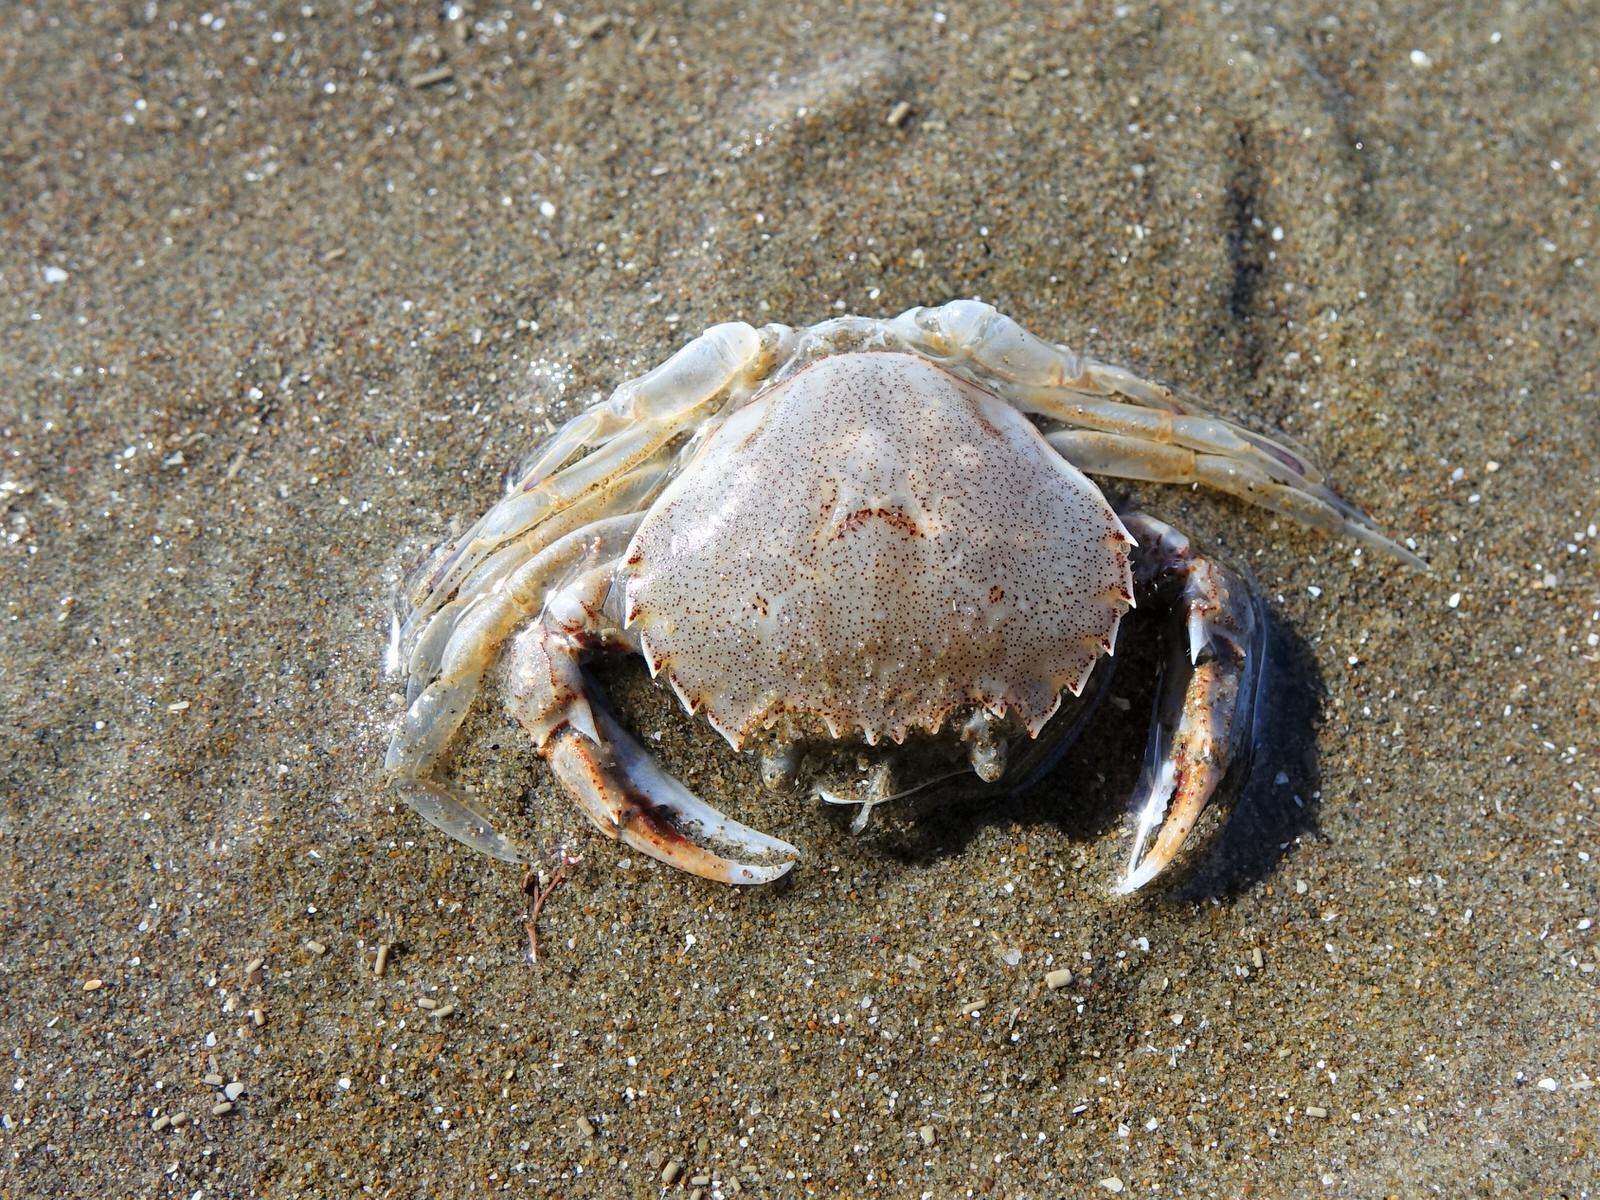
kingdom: Animalia
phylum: Arthropoda
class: Malacostraca
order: Decapoda
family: Ovalipidae
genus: Ovalipes
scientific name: Ovalipes catharus
